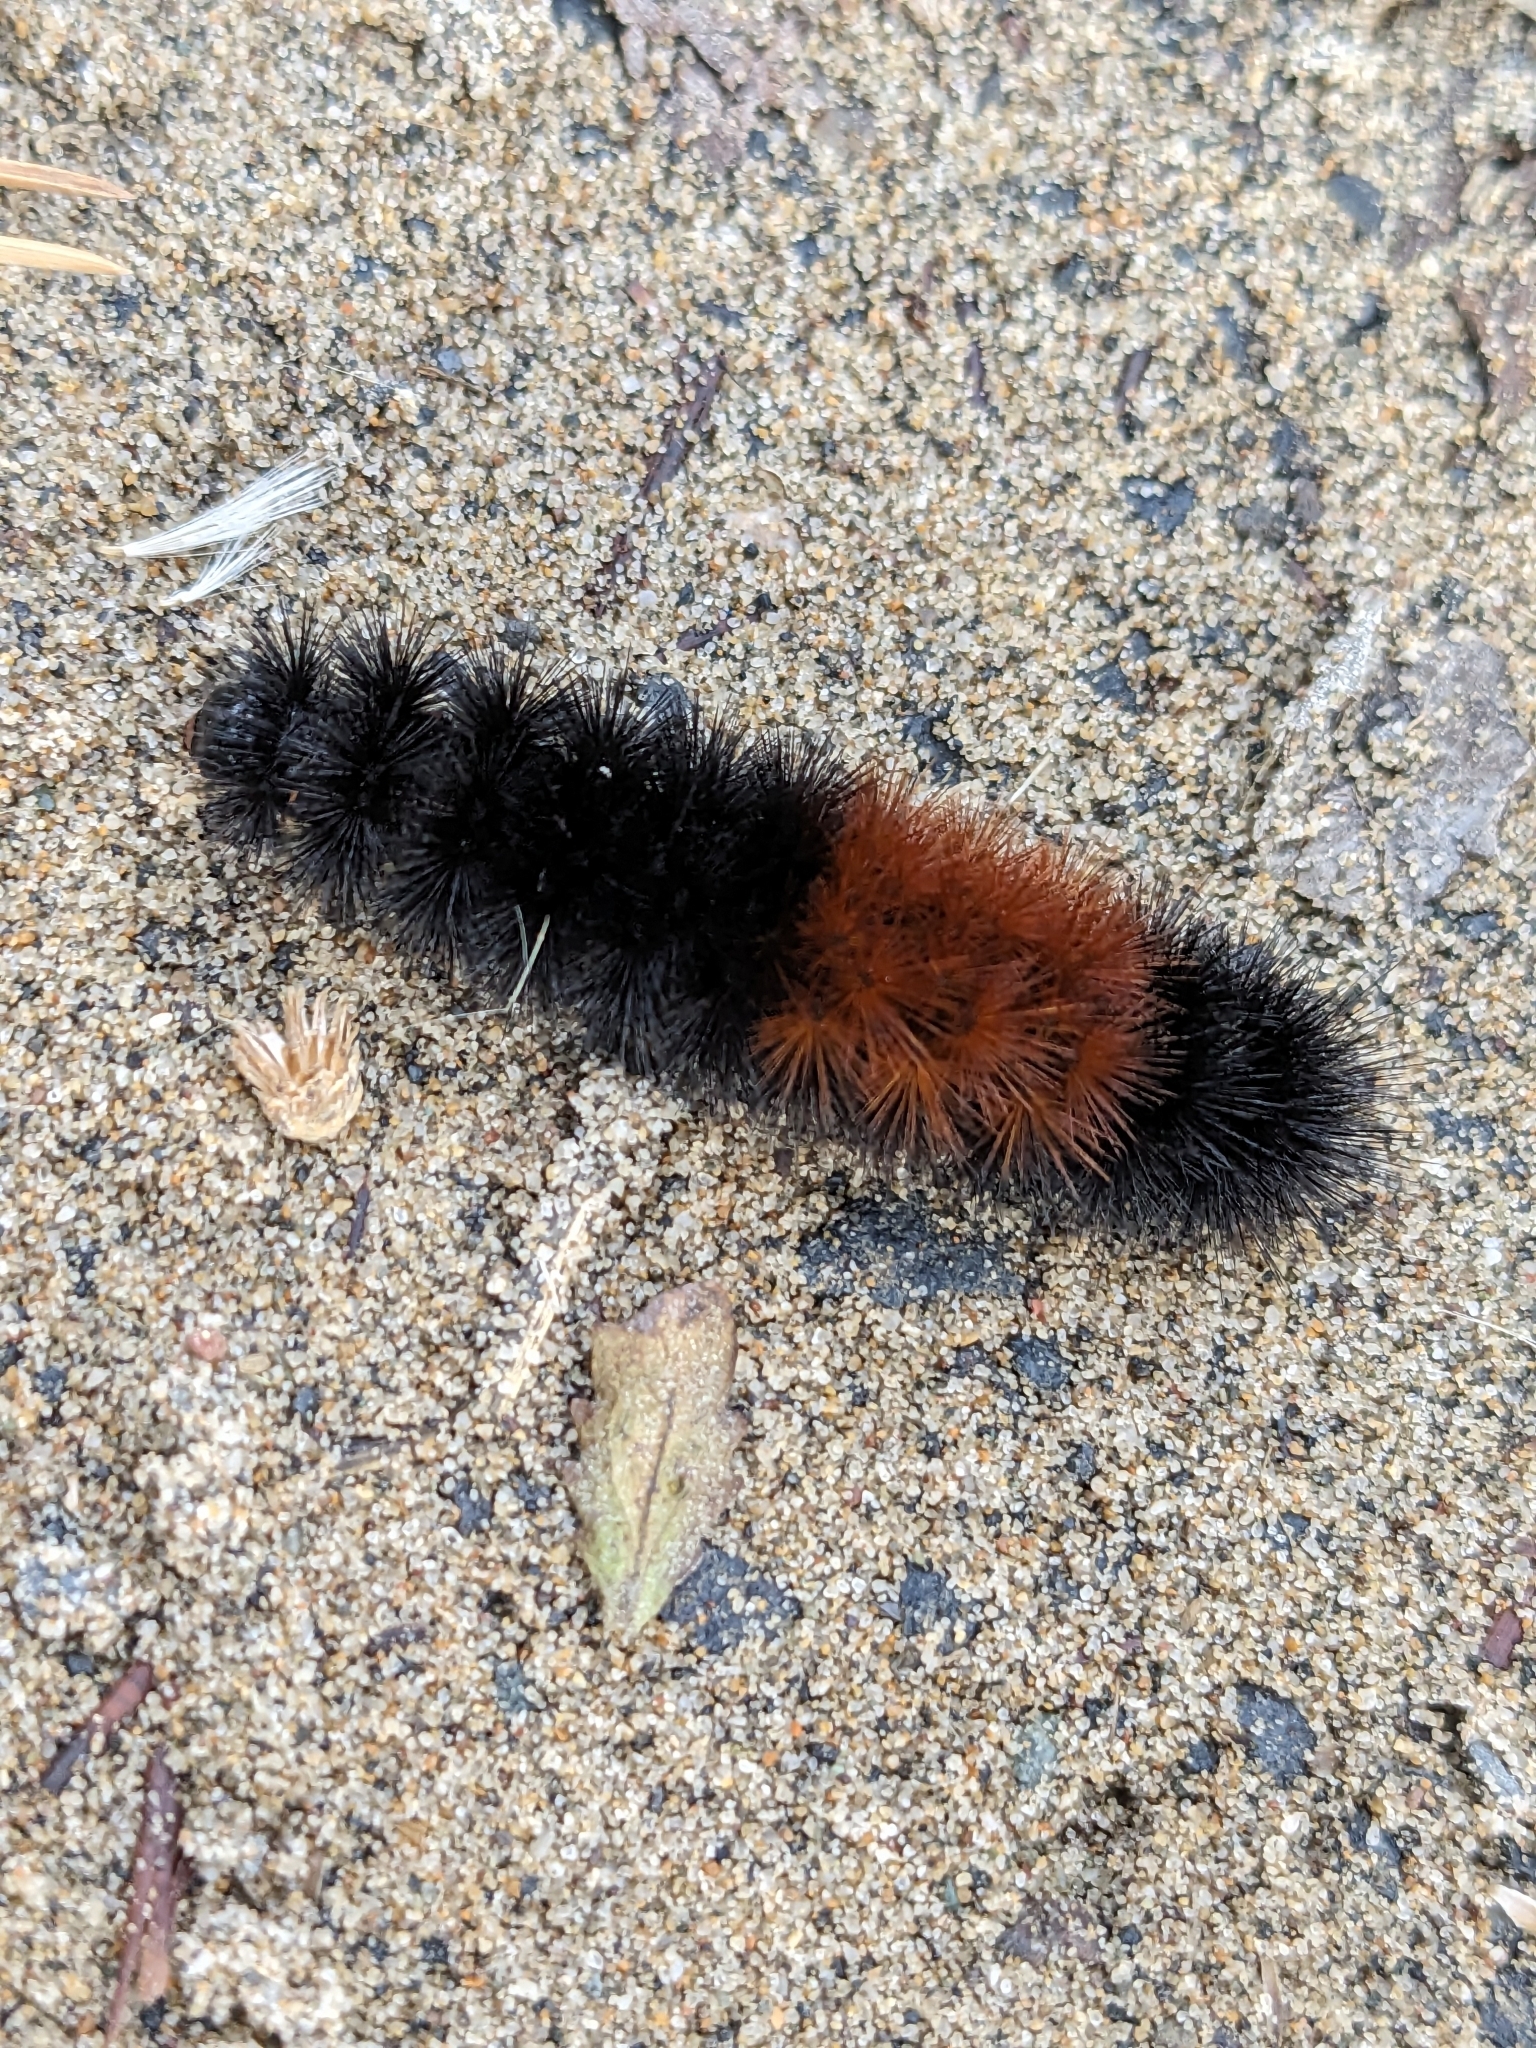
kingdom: Animalia
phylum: Arthropoda
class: Insecta
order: Lepidoptera
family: Erebidae
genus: Pyrrharctia
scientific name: Pyrrharctia isabella
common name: Isabella tiger moth
